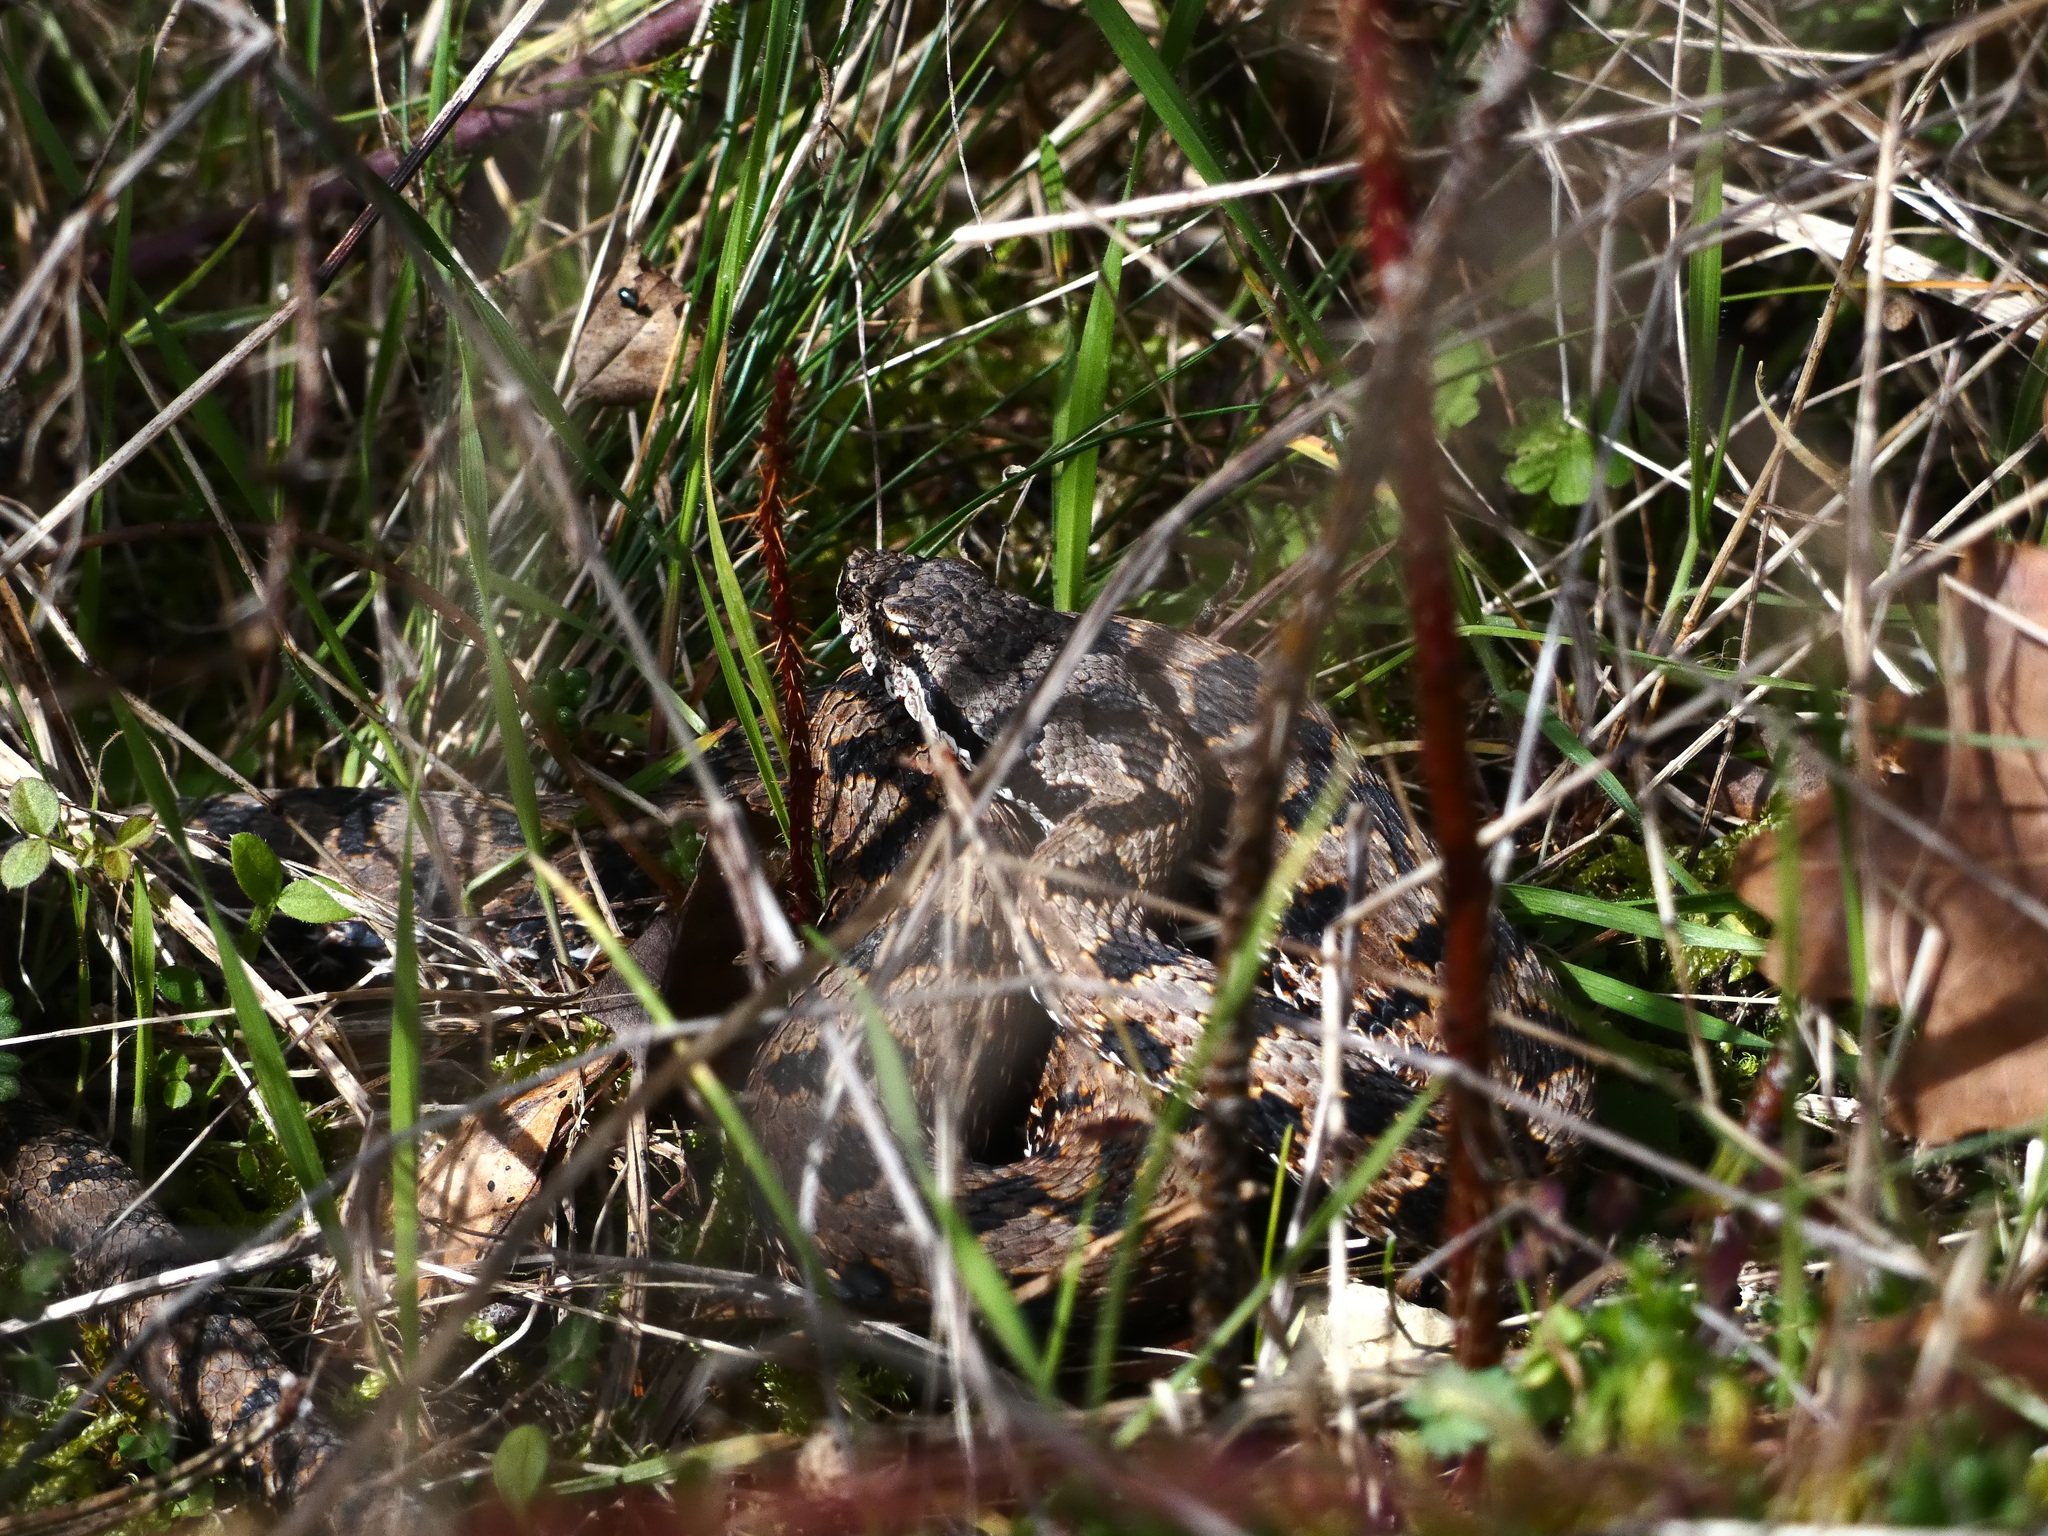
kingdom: Animalia
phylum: Chordata
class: Squamata
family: Viperidae
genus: Vipera
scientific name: Vipera aspis
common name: Asp viper
